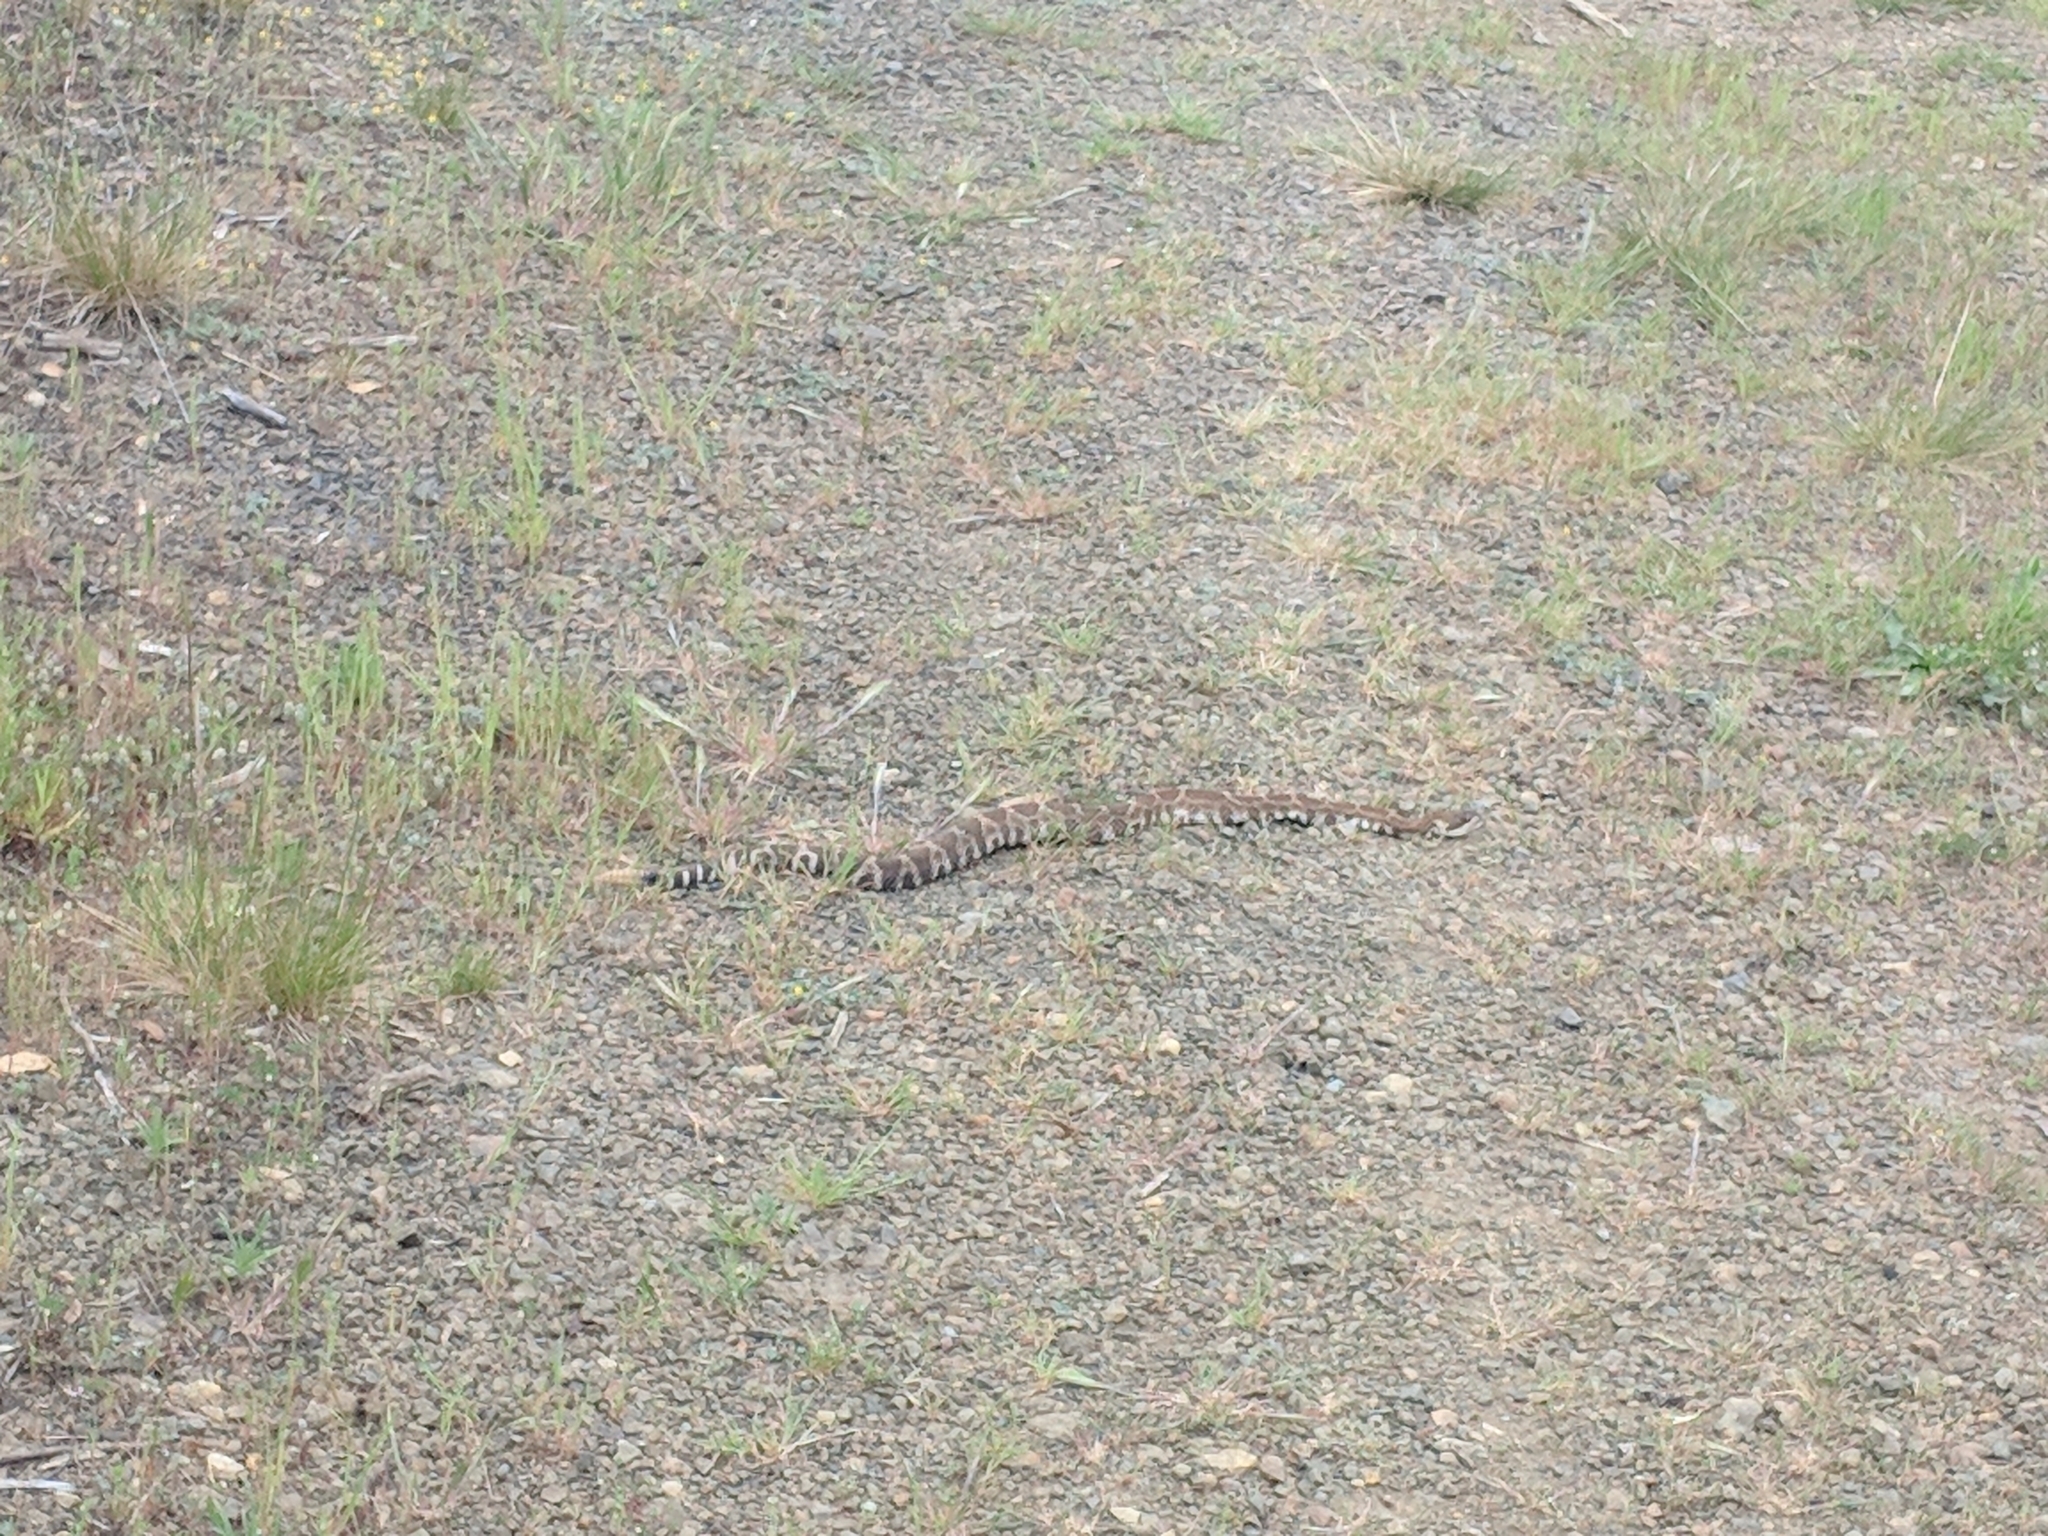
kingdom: Animalia
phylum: Chordata
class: Squamata
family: Viperidae
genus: Crotalus
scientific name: Crotalus oreganus
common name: Abyssus
